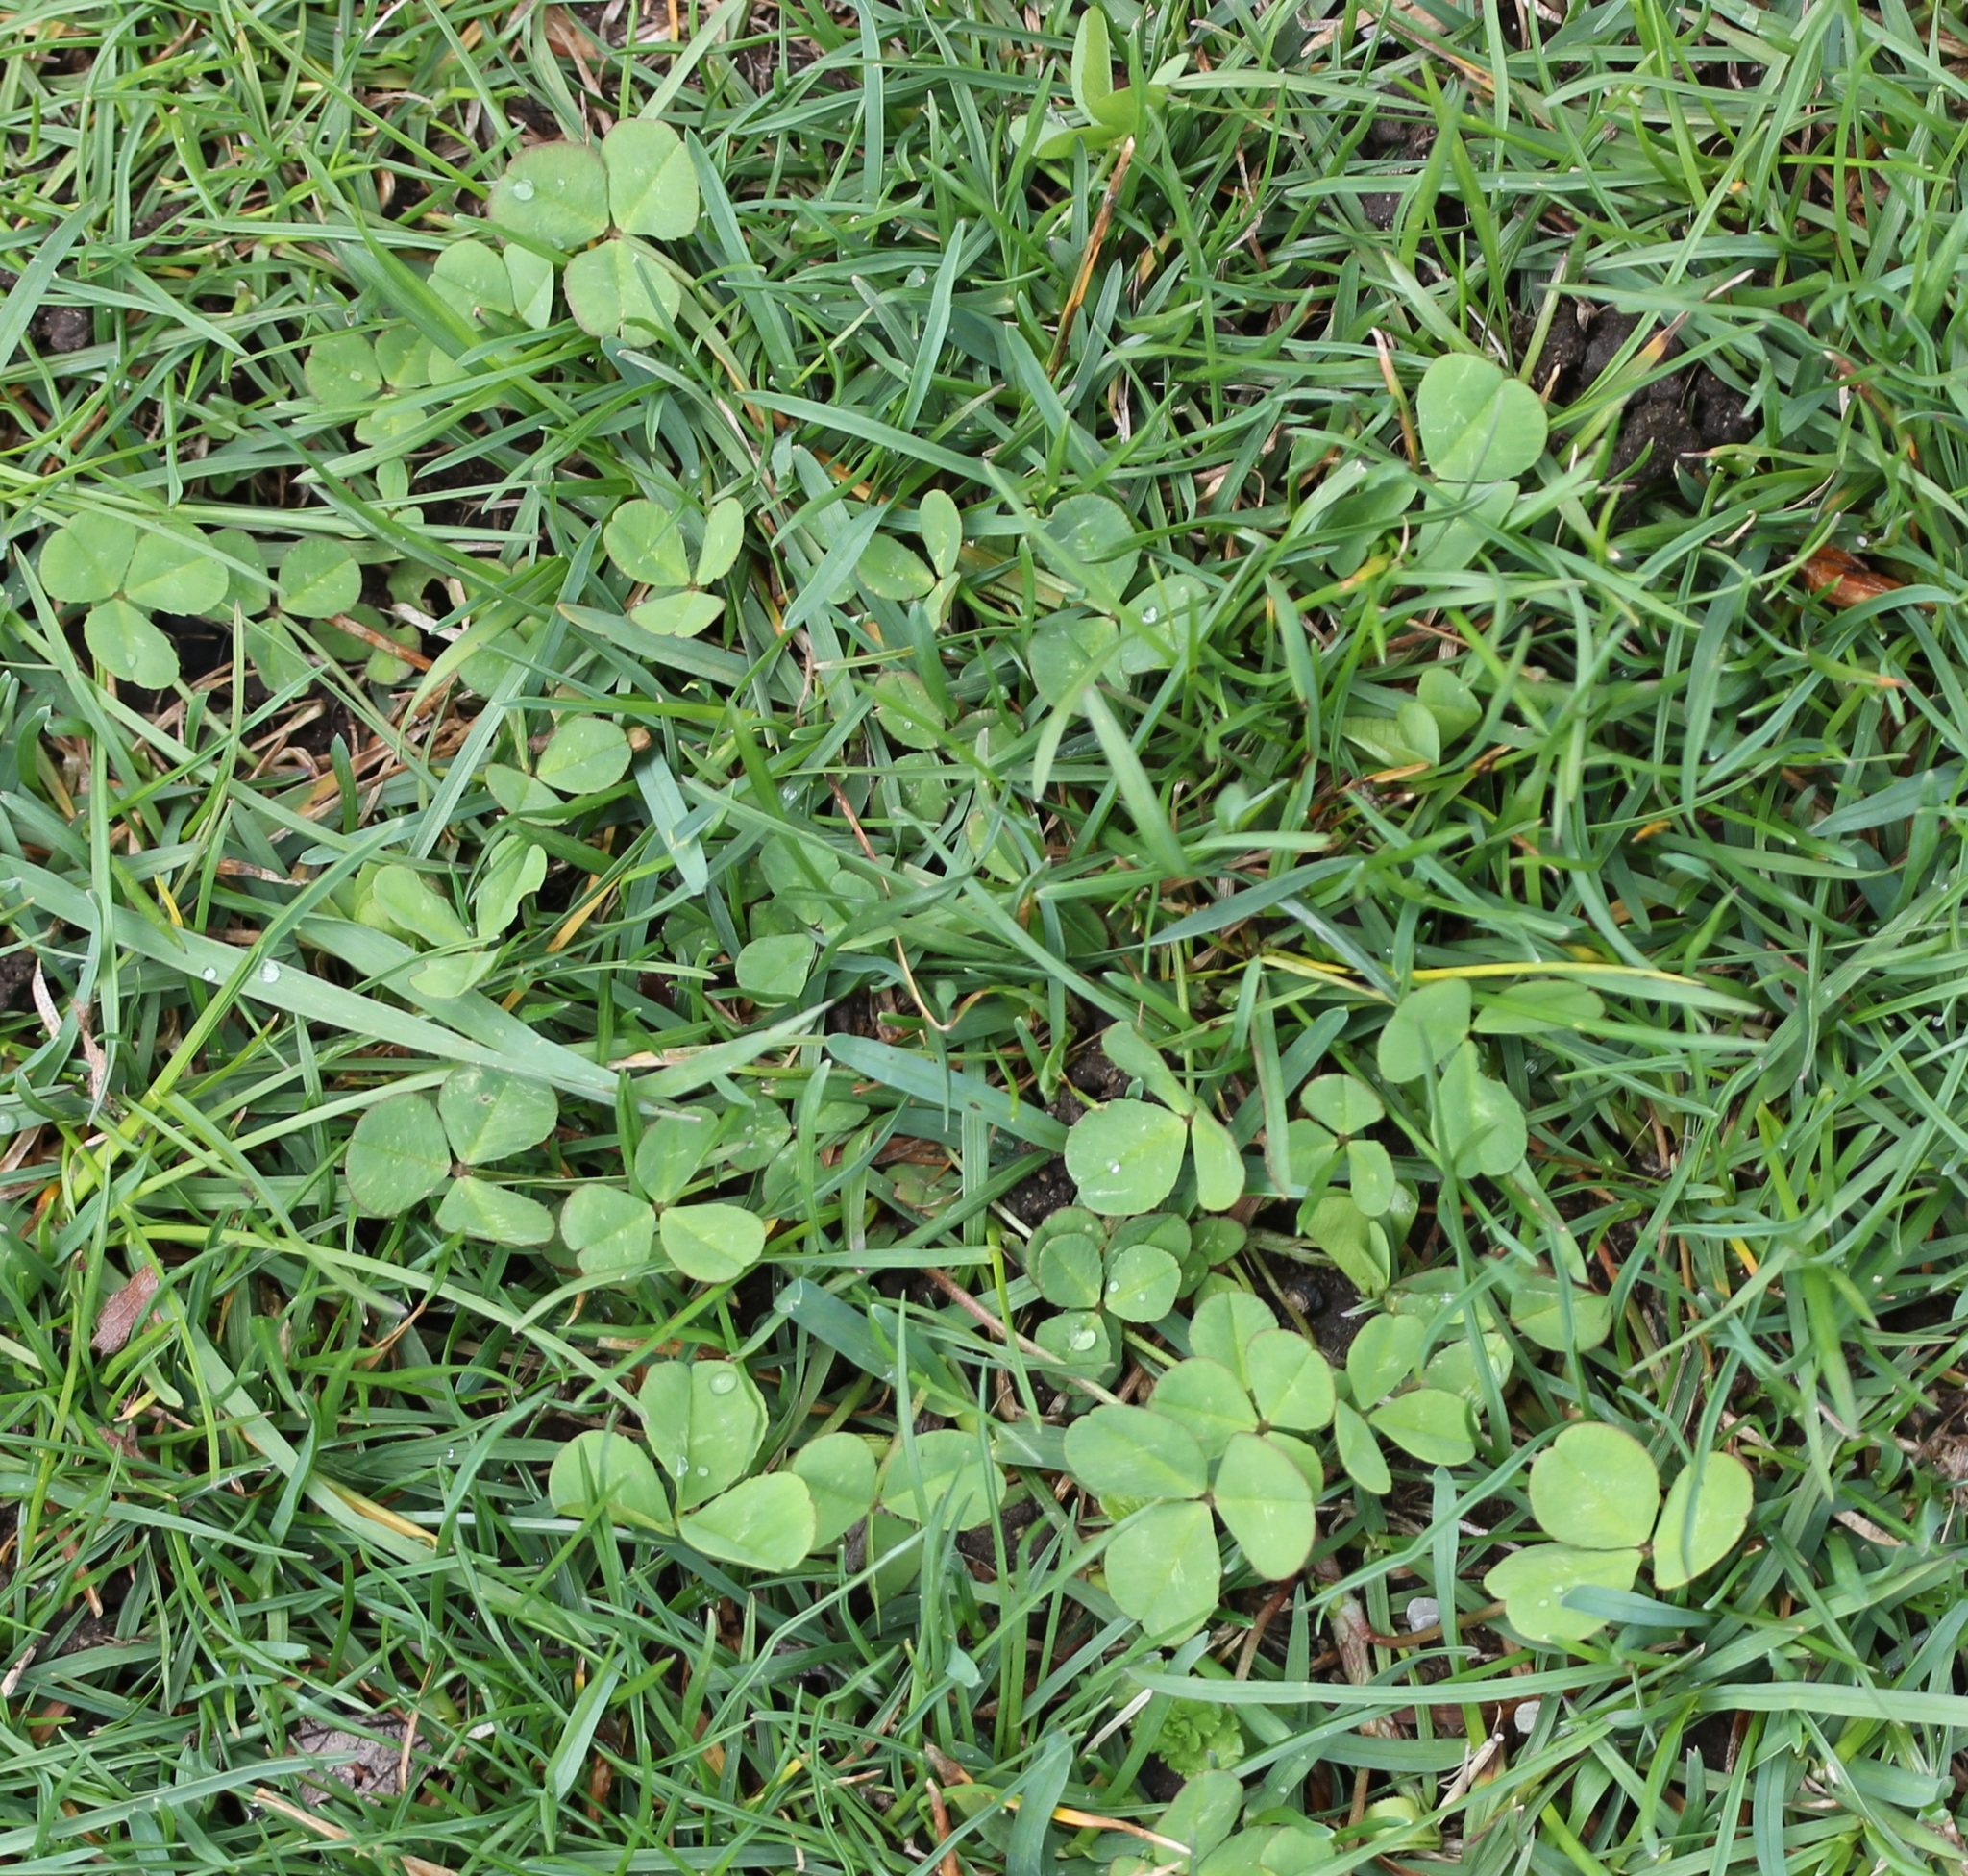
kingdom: Plantae
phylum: Tracheophyta
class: Magnoliopsida
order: Fabales
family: Fabaceae
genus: Trifolium
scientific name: Trifolium repens
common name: White clover
